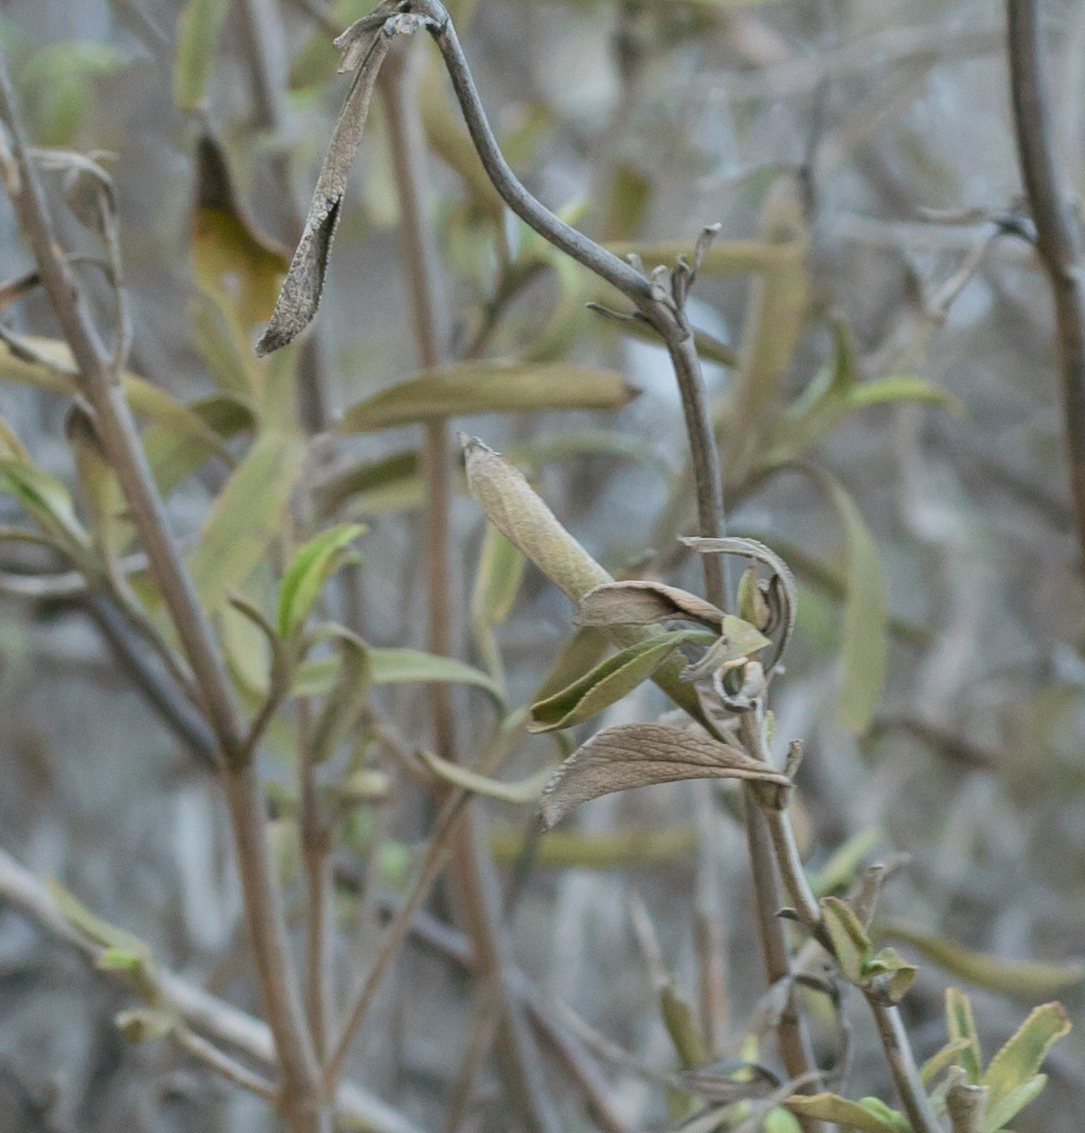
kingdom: Plantae
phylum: Tracheophyta
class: Magnoliopsida
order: Lamiales
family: Lamiaceae
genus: Salvia
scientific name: Salvia mellifera
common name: Black sage
